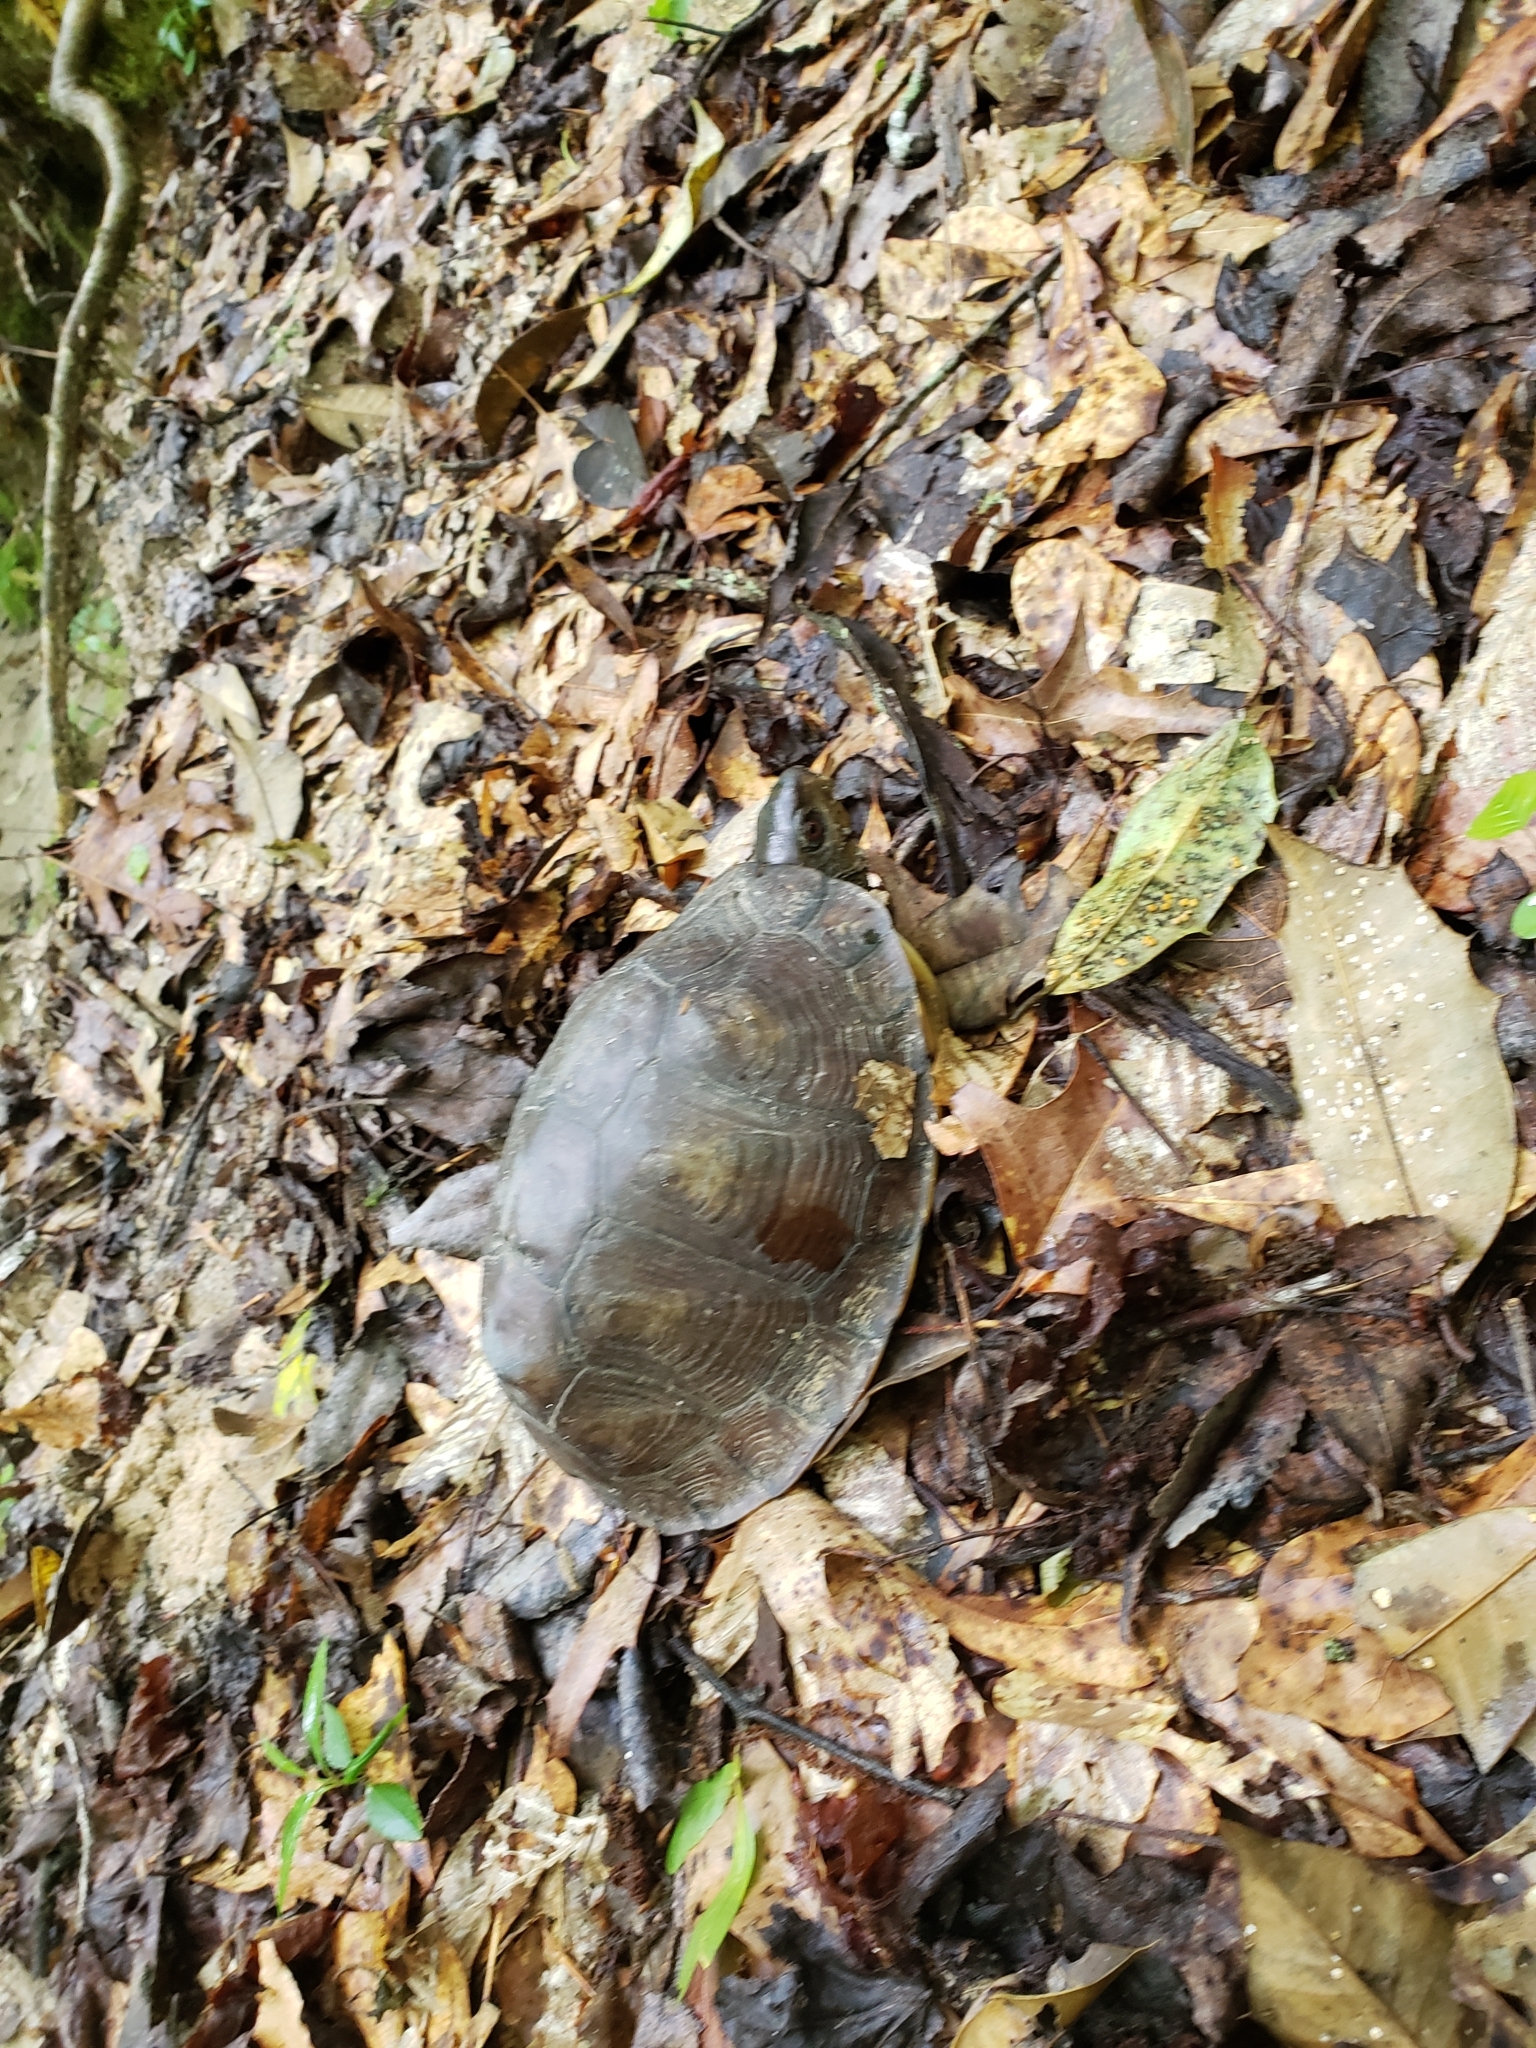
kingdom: Animalia
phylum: Chordata
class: Testudines
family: Emydidae
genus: Terrapene
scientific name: Terrapene carolina
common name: Common box turtle
